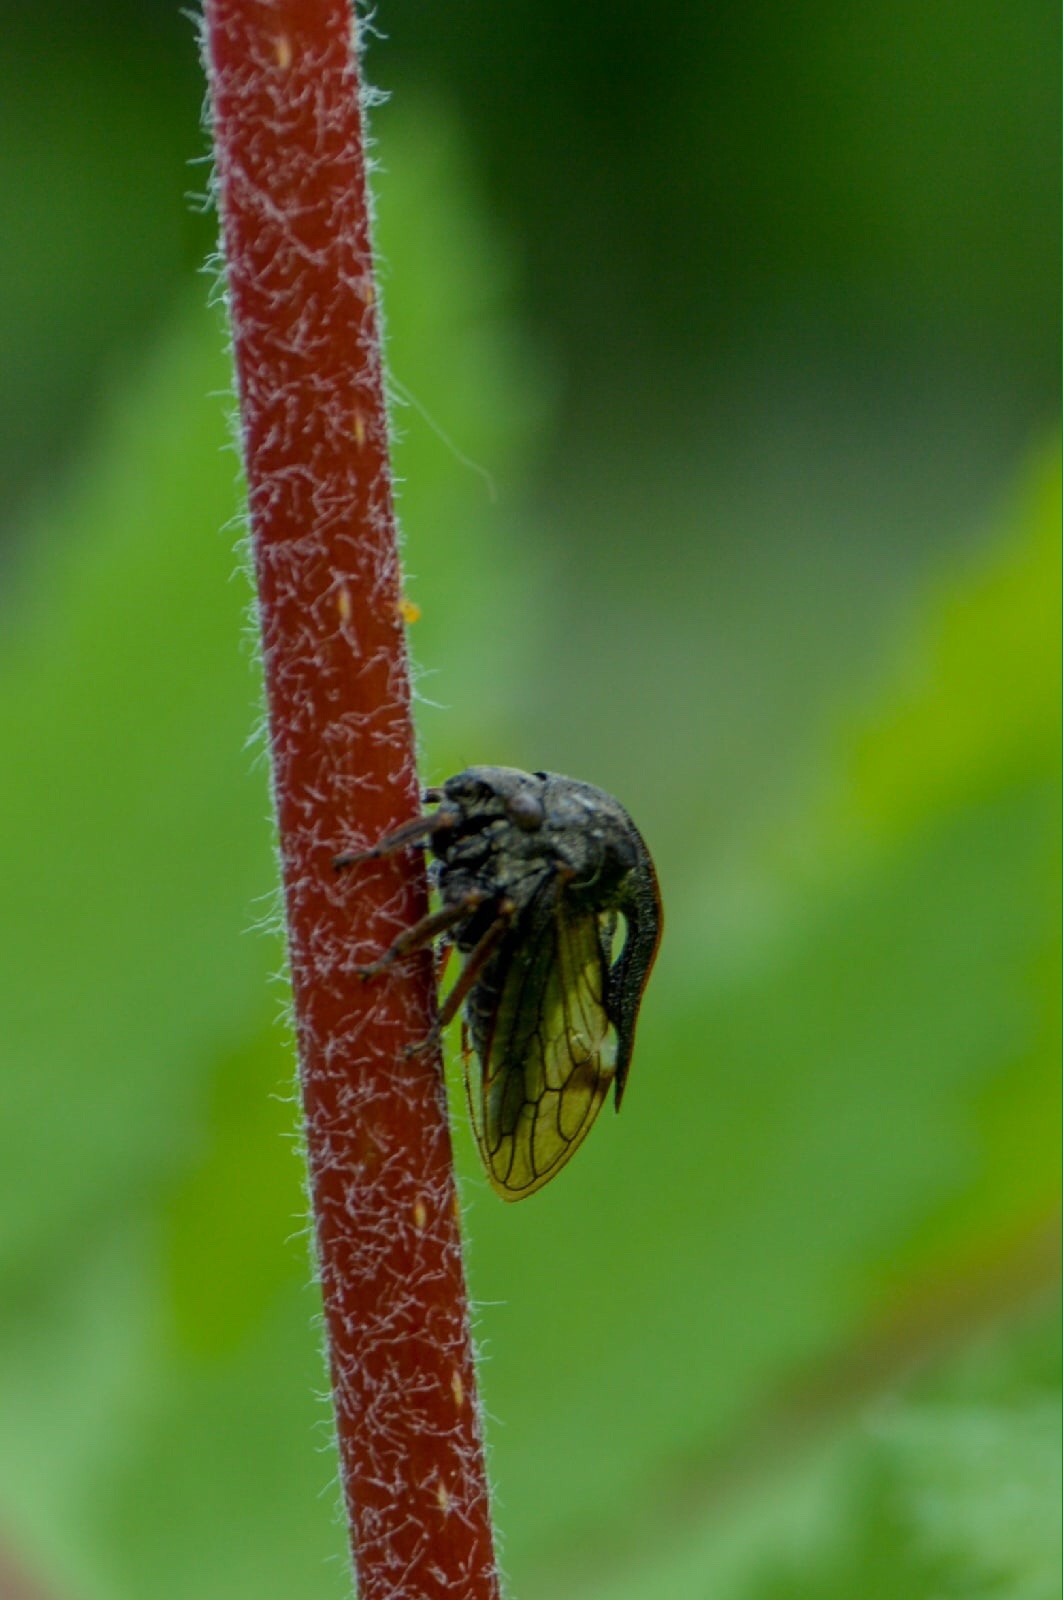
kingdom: Animalia
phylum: Arthropoda
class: Insecta
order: Hemiptera
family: Membracidae
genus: Centrotus
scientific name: Centrotus cornuta
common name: Treehopper
